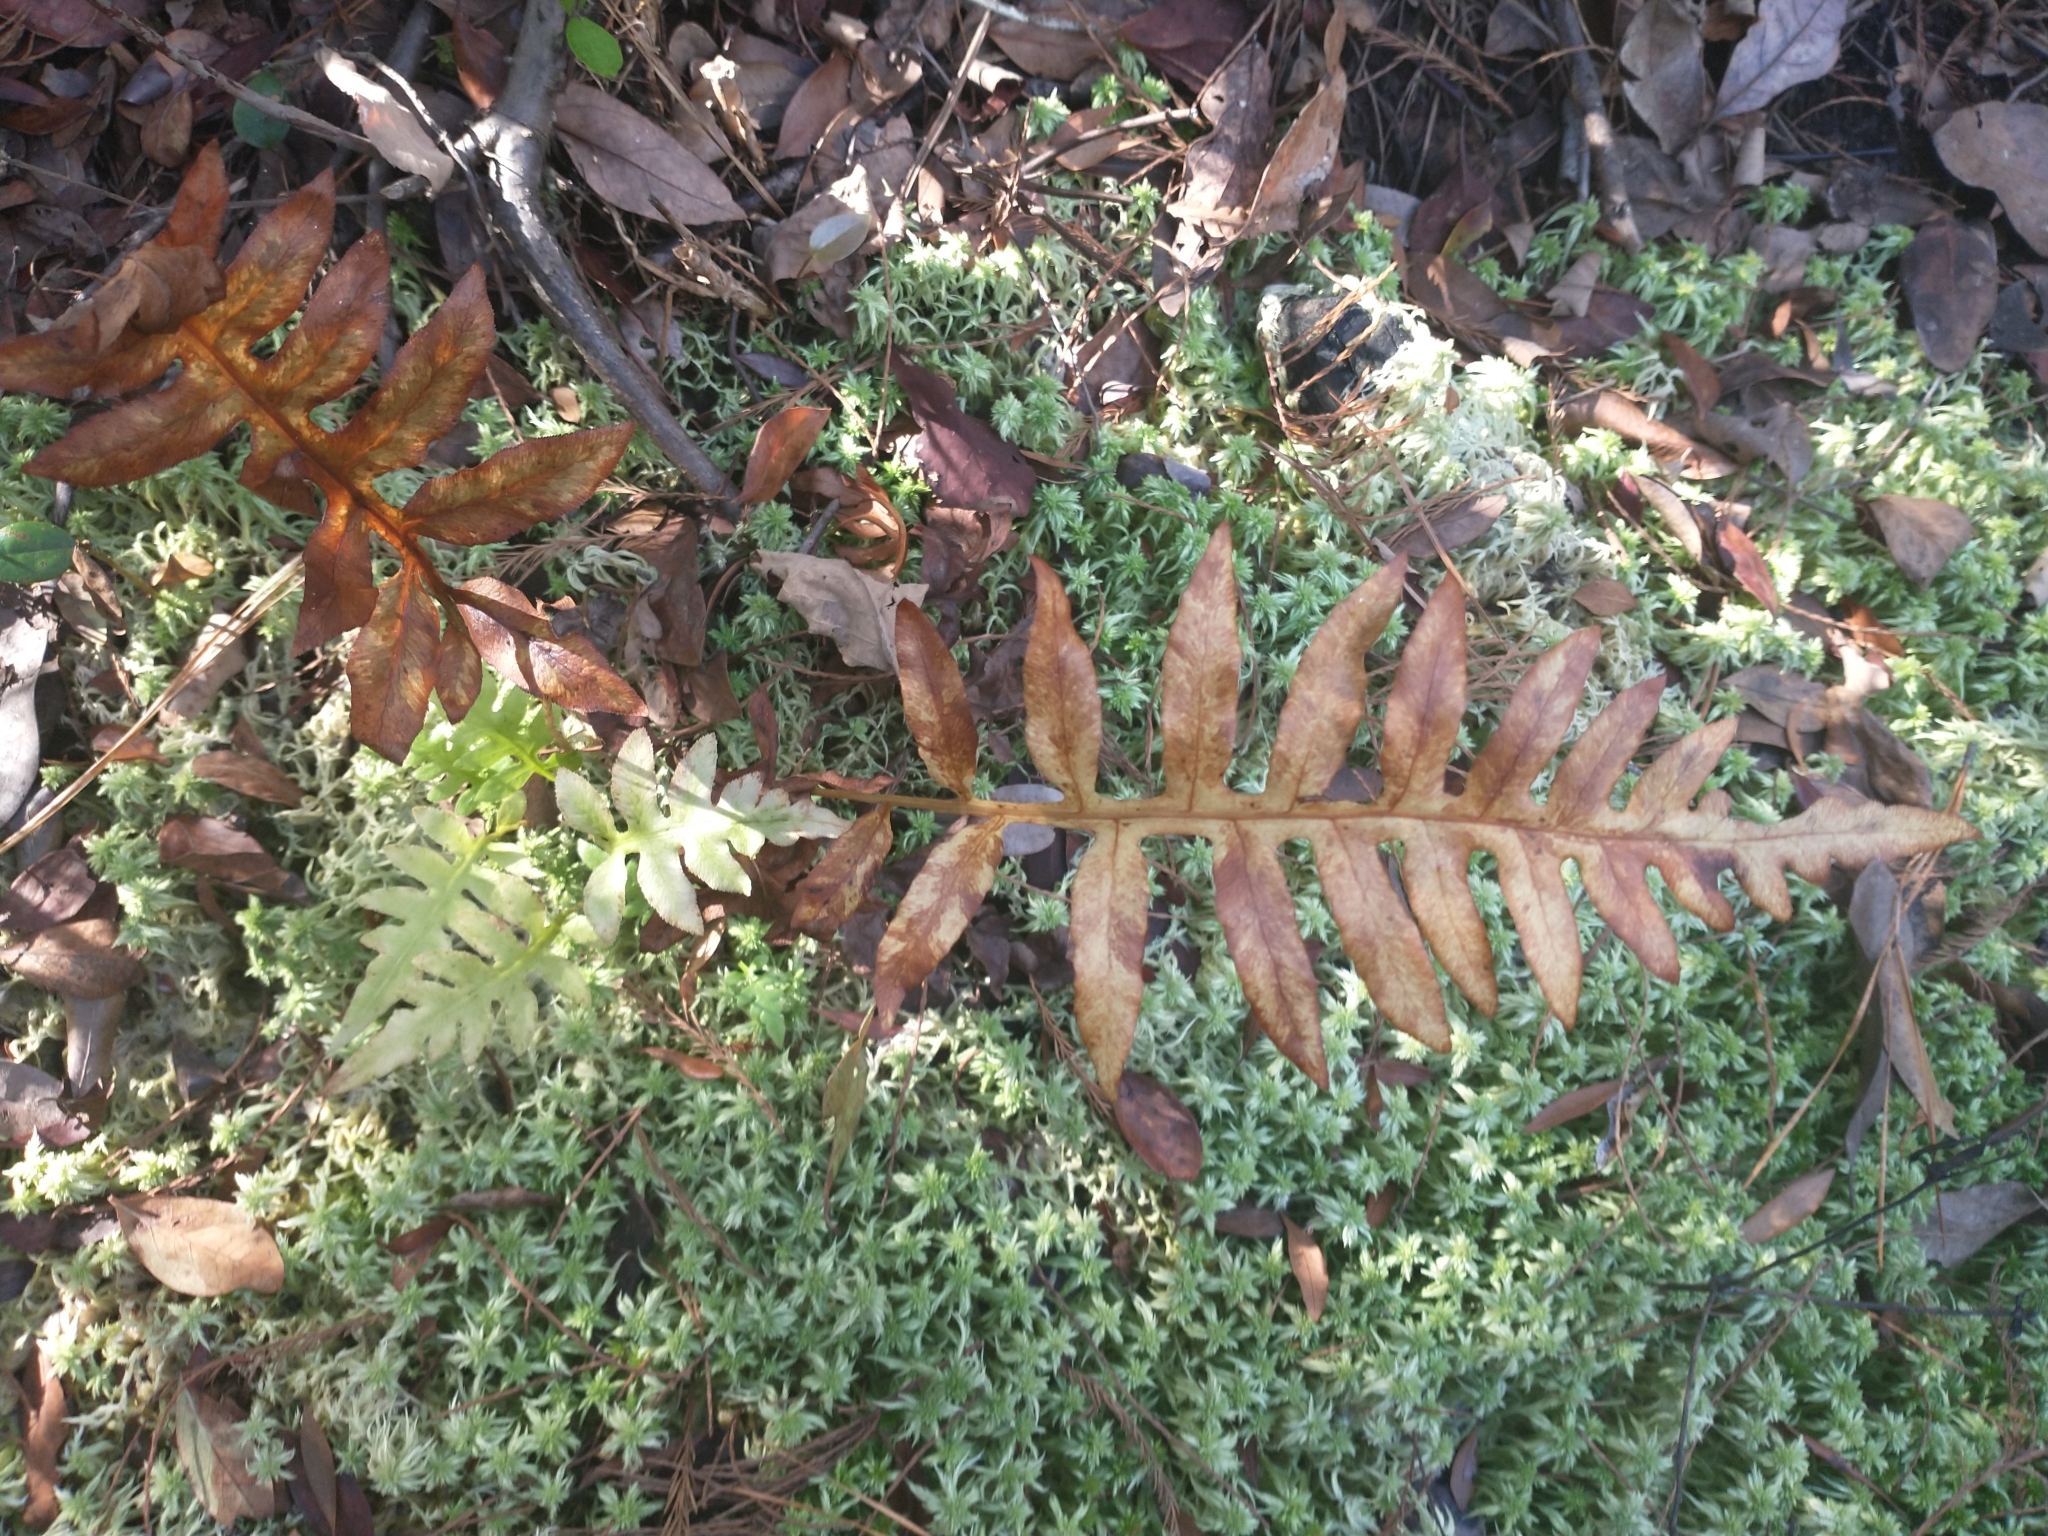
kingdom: Plantae
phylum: Tracheophyta
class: Polypodiopsida
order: Polypodiales
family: Blechnaceae
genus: Lorinseria
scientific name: Lorinseria areolata
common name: Dwarf chain fern
